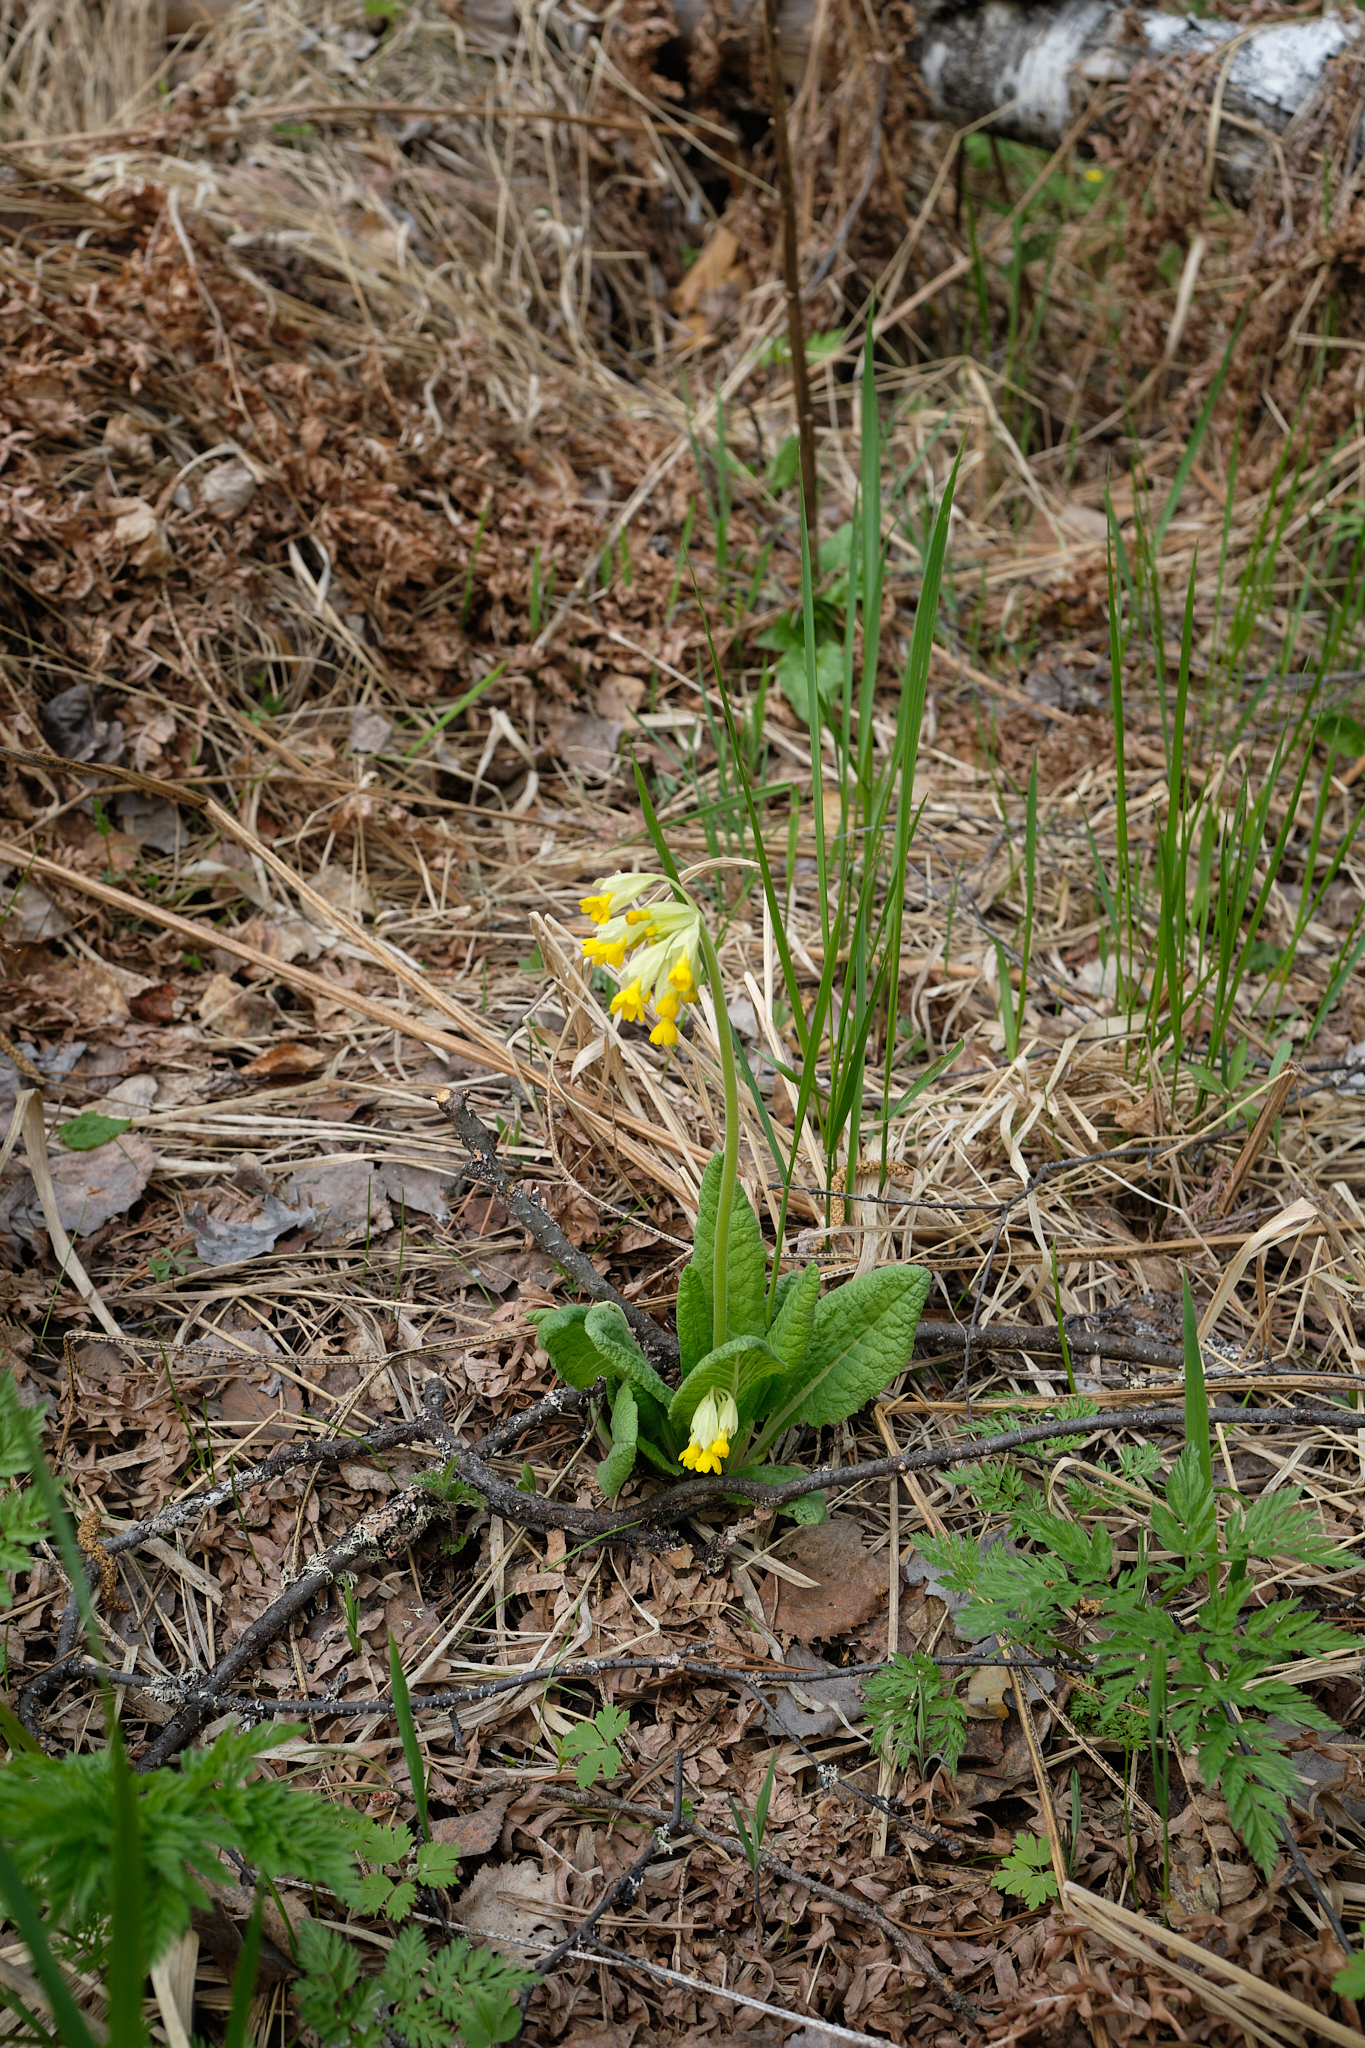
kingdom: Plantae
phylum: Tracheophyta
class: Magnoliopsida
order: Ericales
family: Primulaceae
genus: Primula
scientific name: Primula veris
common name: Cowslip
